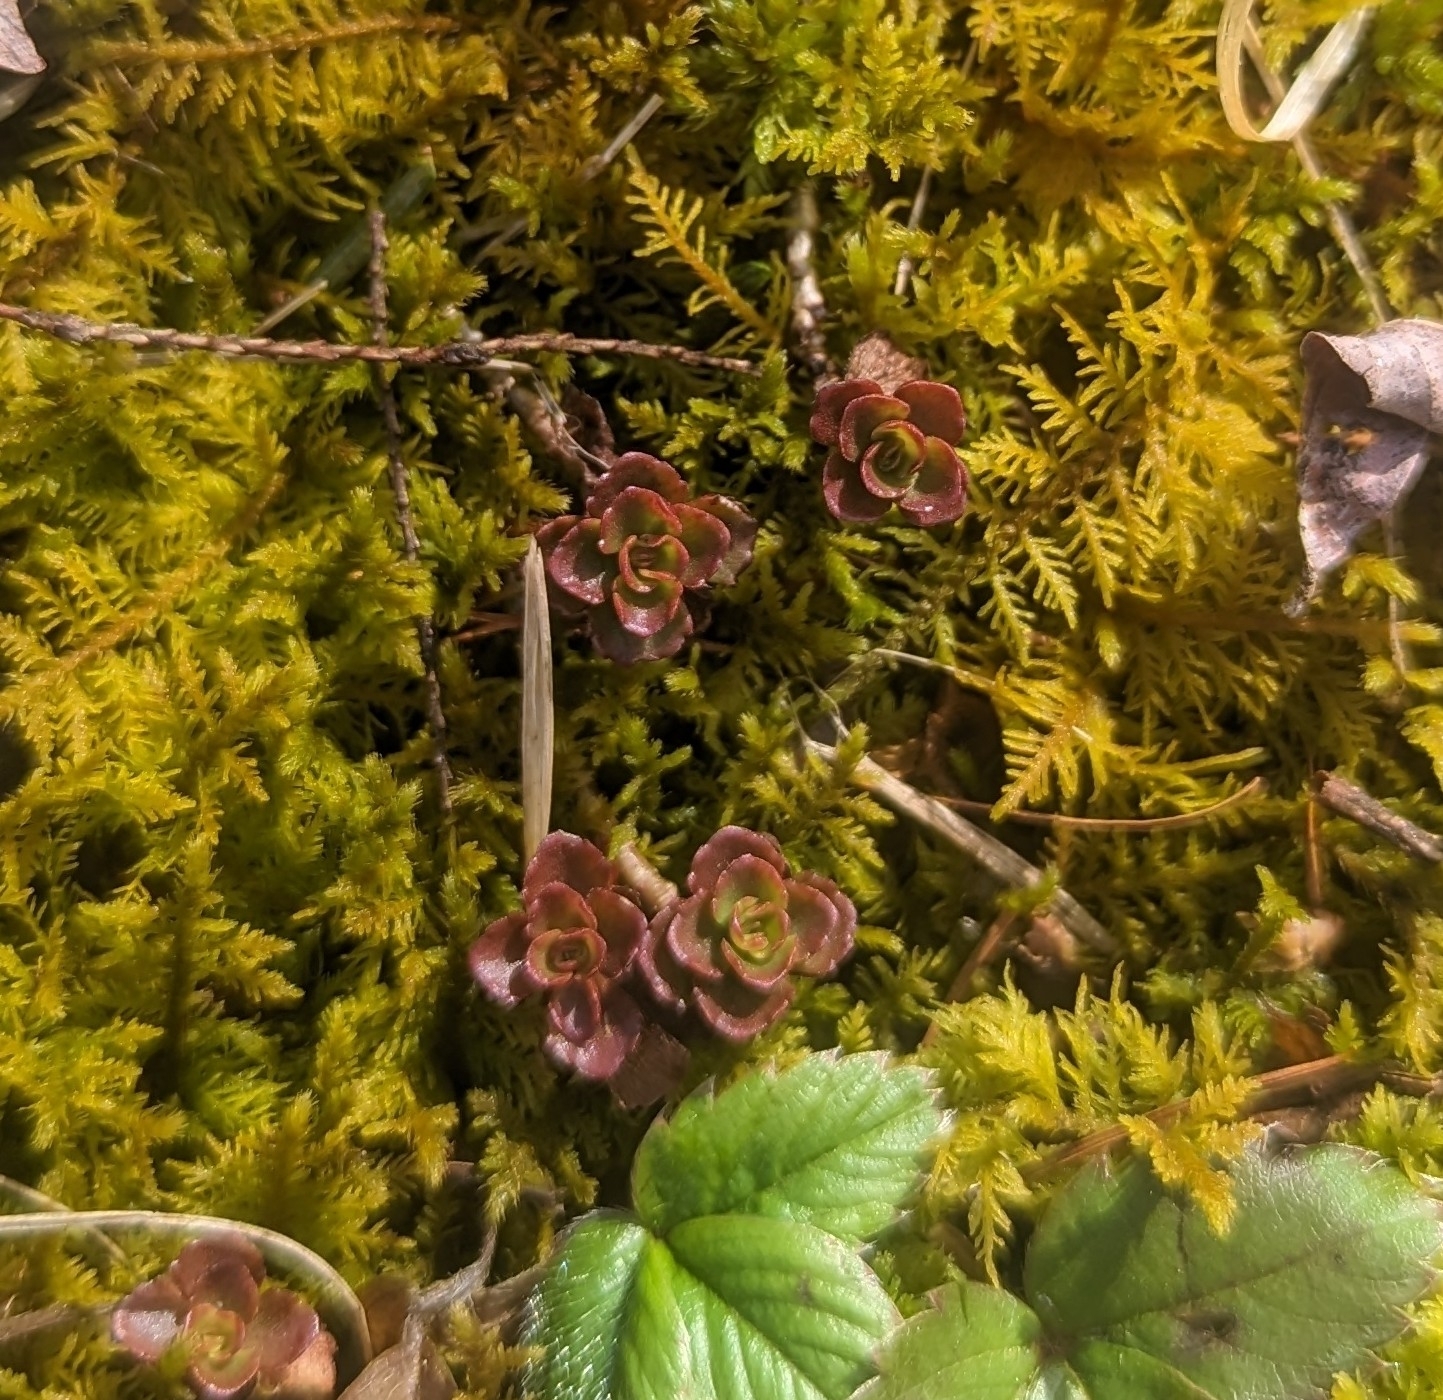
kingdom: Plantae
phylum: Tracheophyta
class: Magnoliopsida
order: Saxifragales
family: Crassulaceae
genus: Phedimus
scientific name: Phedimus spurius
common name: Caucasian stonecrop
